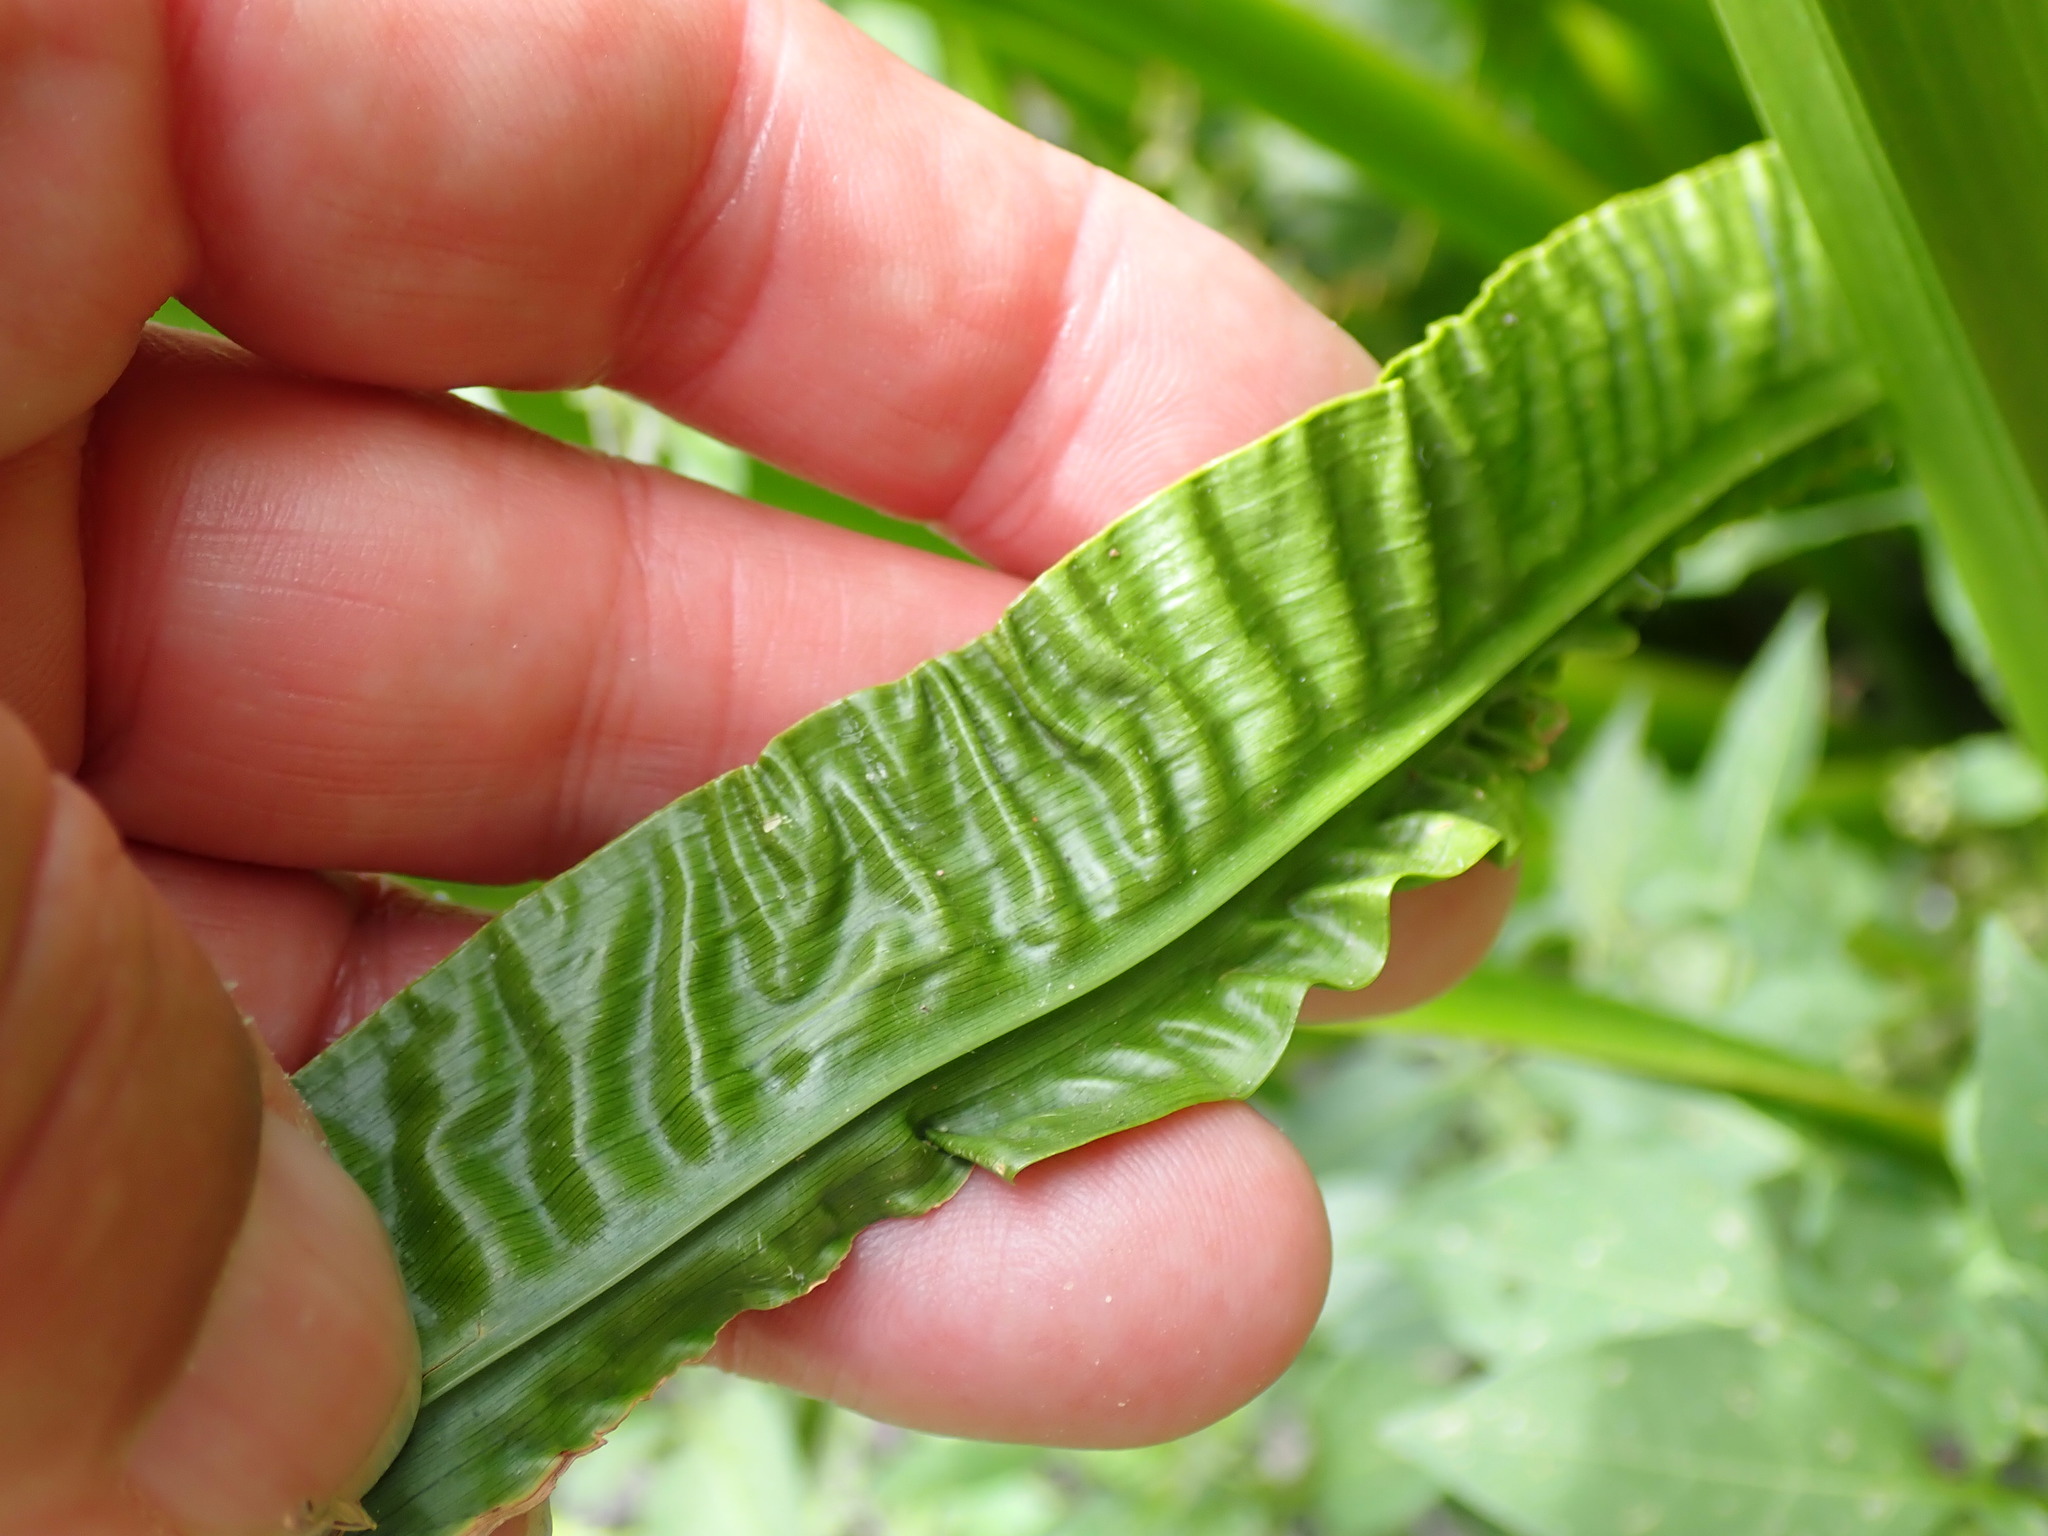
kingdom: Plantae
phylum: Tracheophyta
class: Liliopsida
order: Acorales
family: Acoraceae
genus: Acorus
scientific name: Acorus calamus
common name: Sweet-flag
